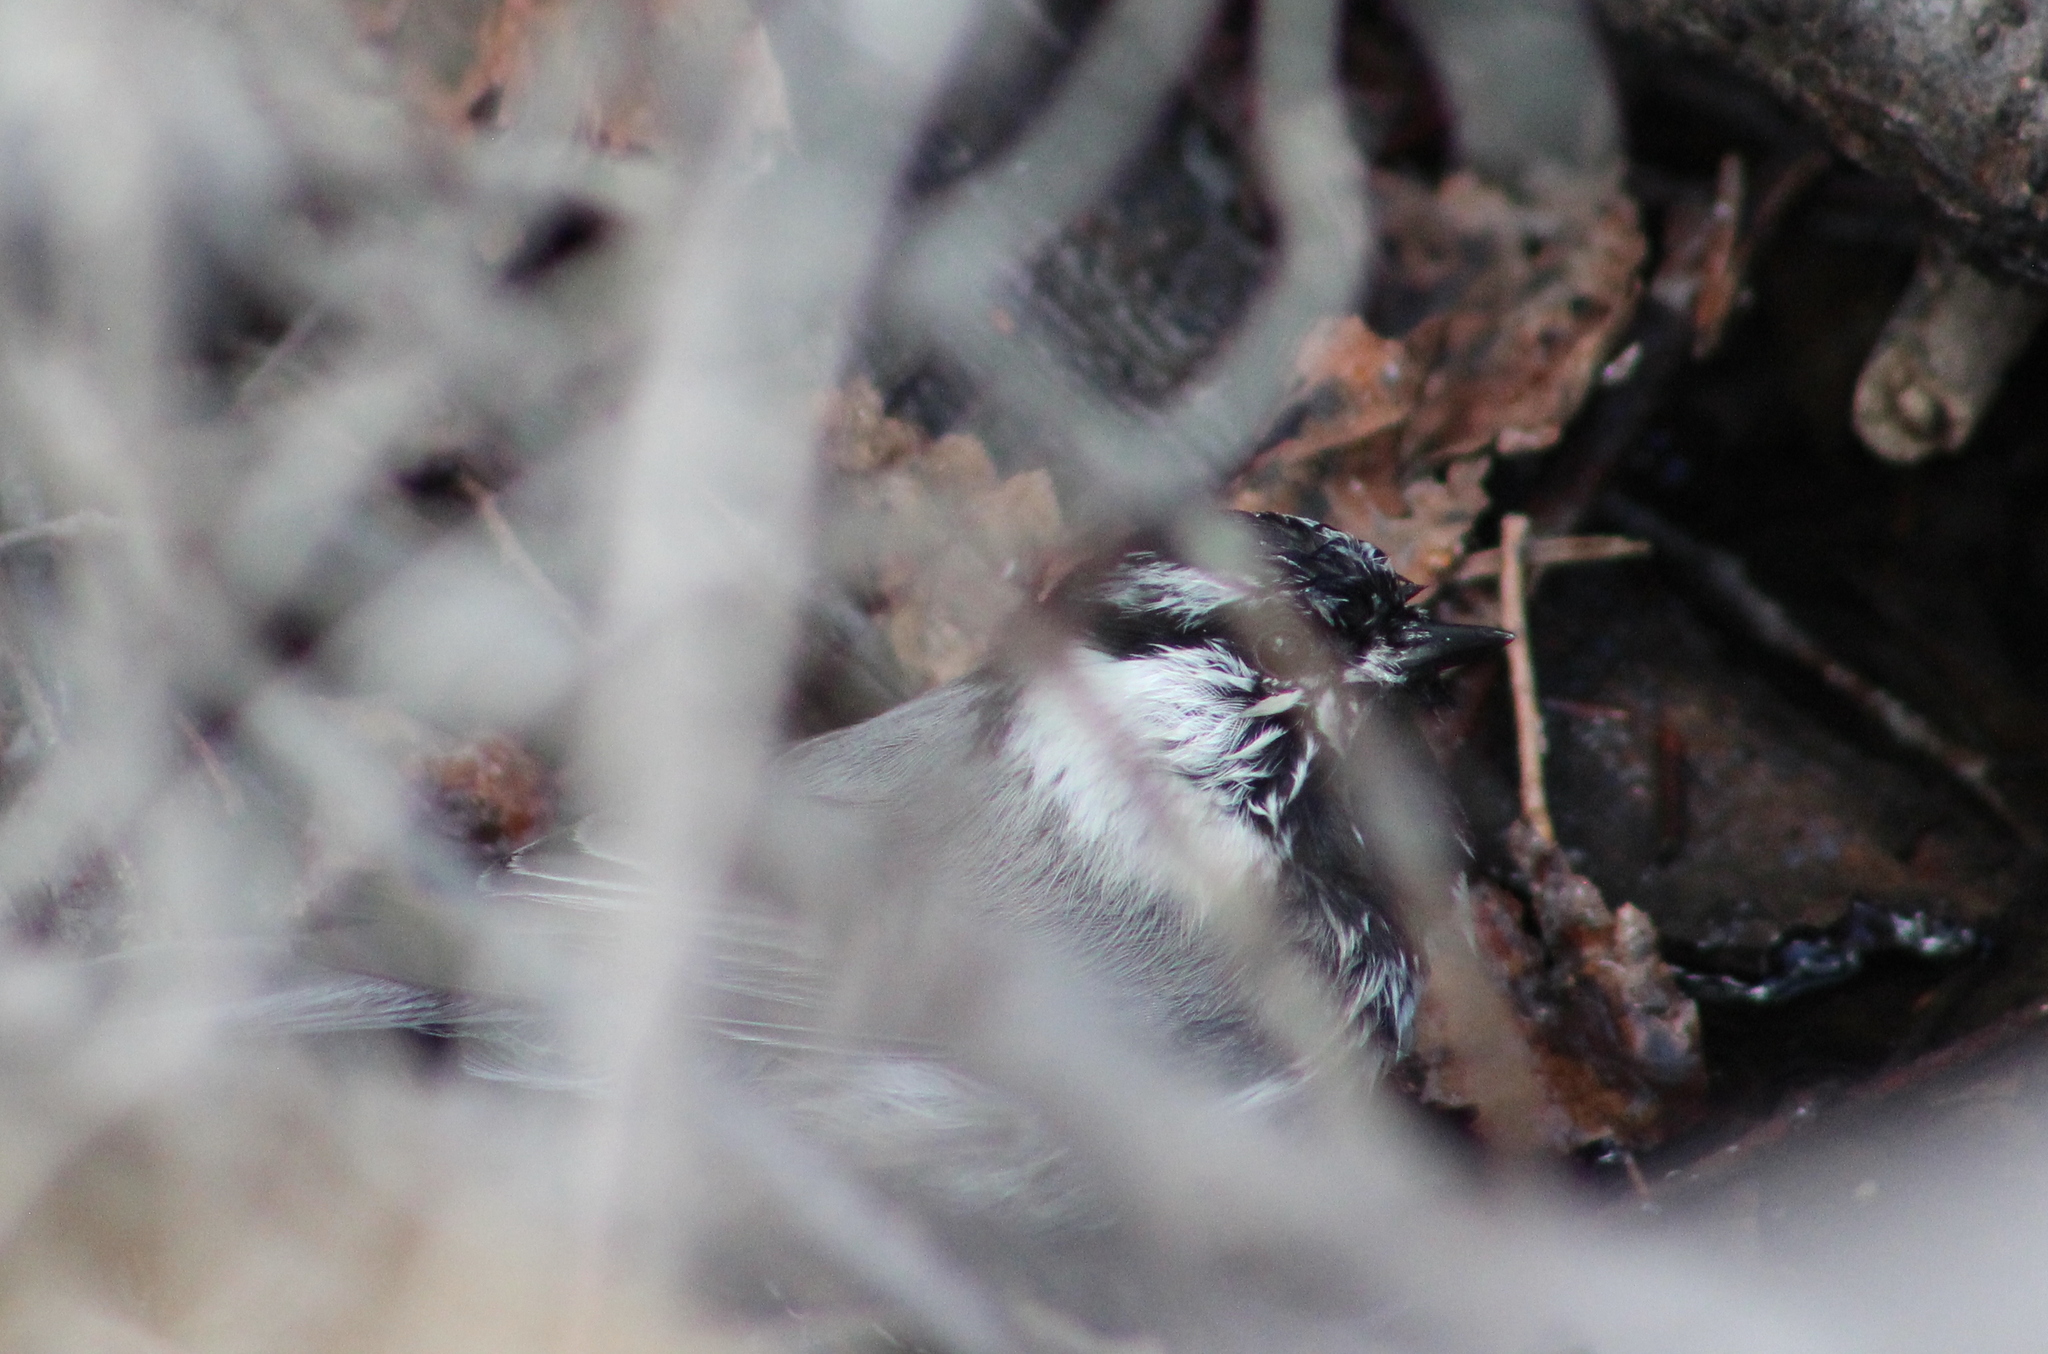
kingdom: Animalia
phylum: Chordata
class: Aves
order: Passeriformes
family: Paridae
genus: Poecile
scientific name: Poecile gambeli
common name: Mountain chickadee
